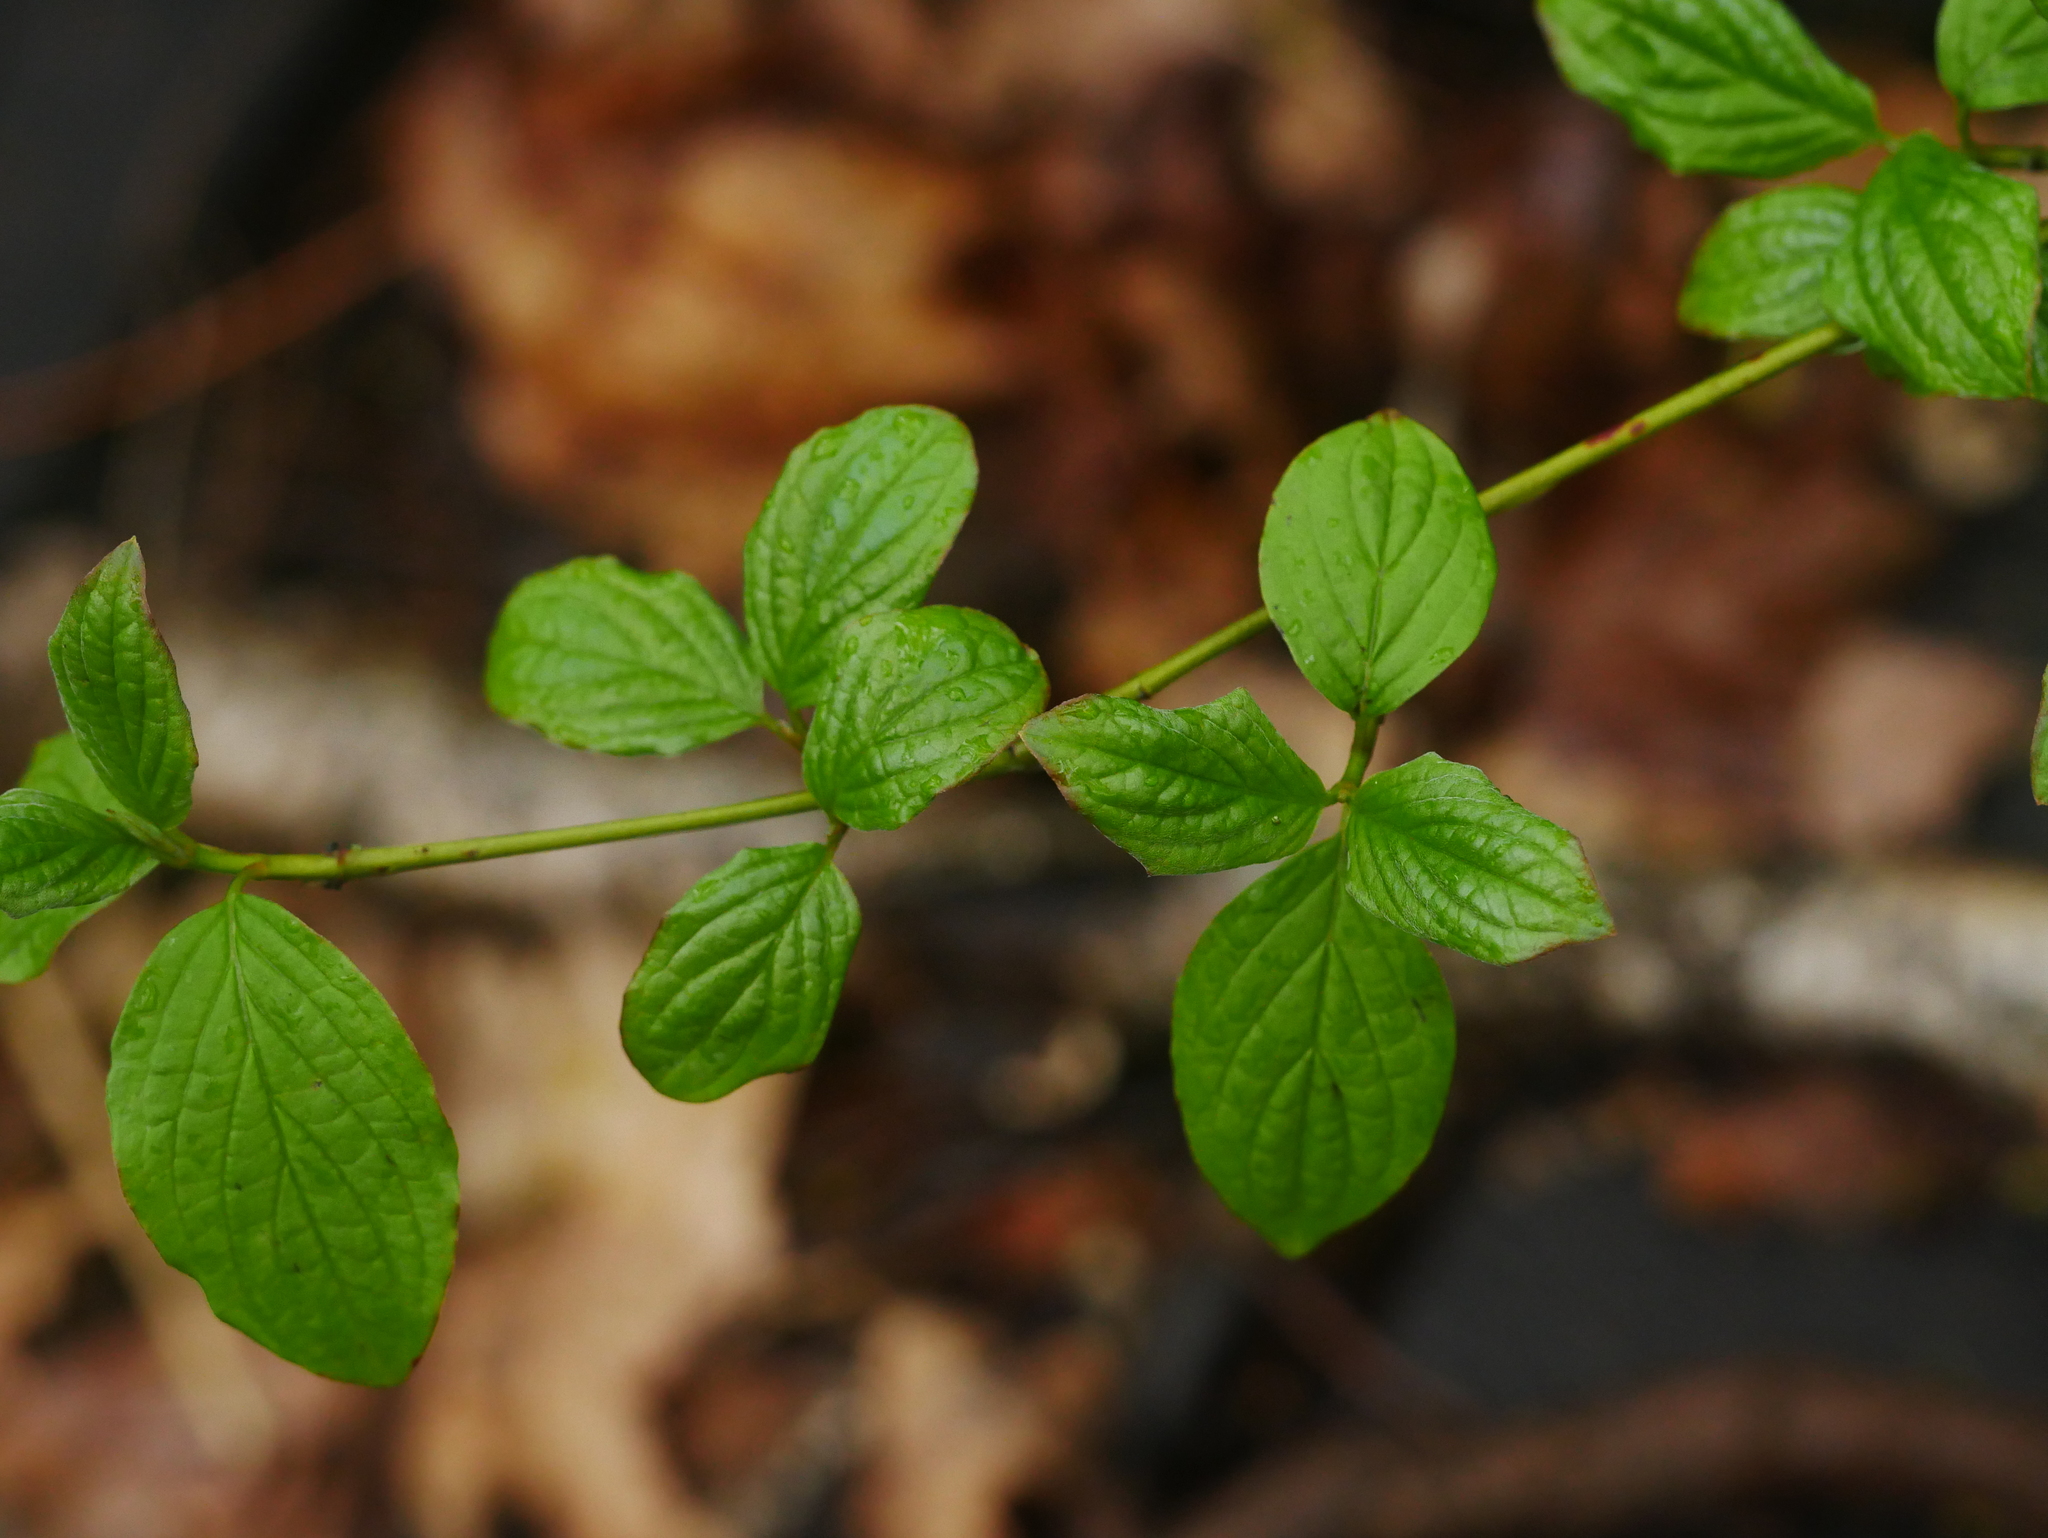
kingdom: Plantae
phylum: Tracheophyta
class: Magnoliopsida
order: Cornales
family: Cornaceae
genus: Cornus
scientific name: Cornus sanguinea
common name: Dogwood
